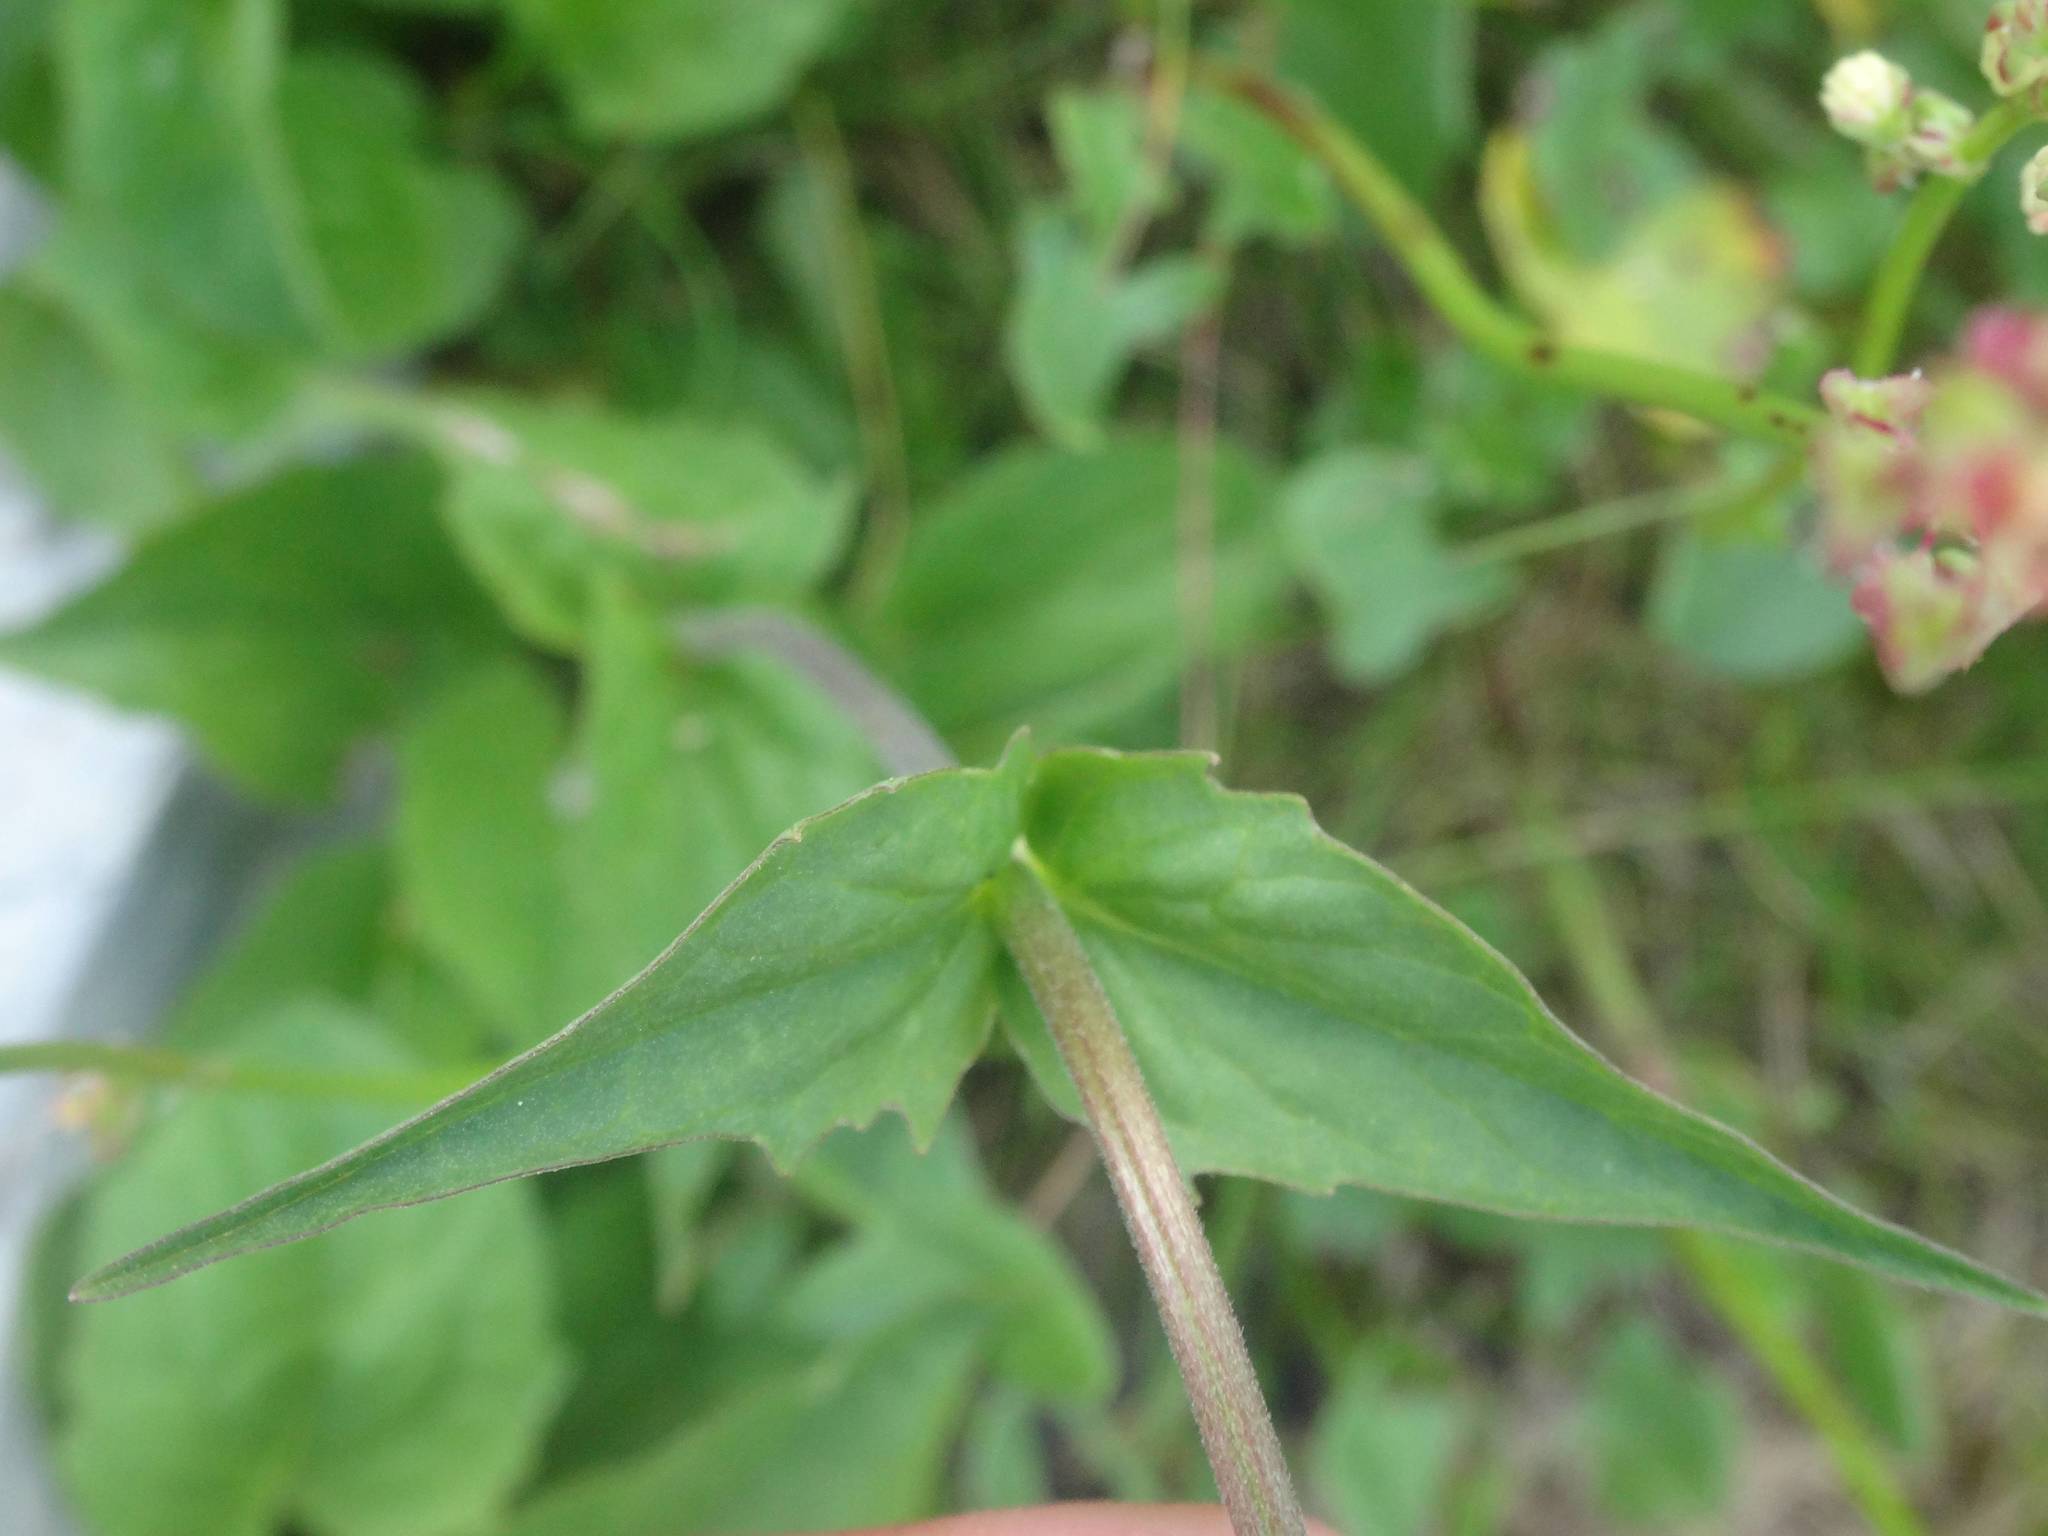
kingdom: Plantae
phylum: Tracheophyta
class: Magnoliopsida
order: Dipsacales
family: Caprifoliaceae
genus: Valeriana
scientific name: Valeriana montana
